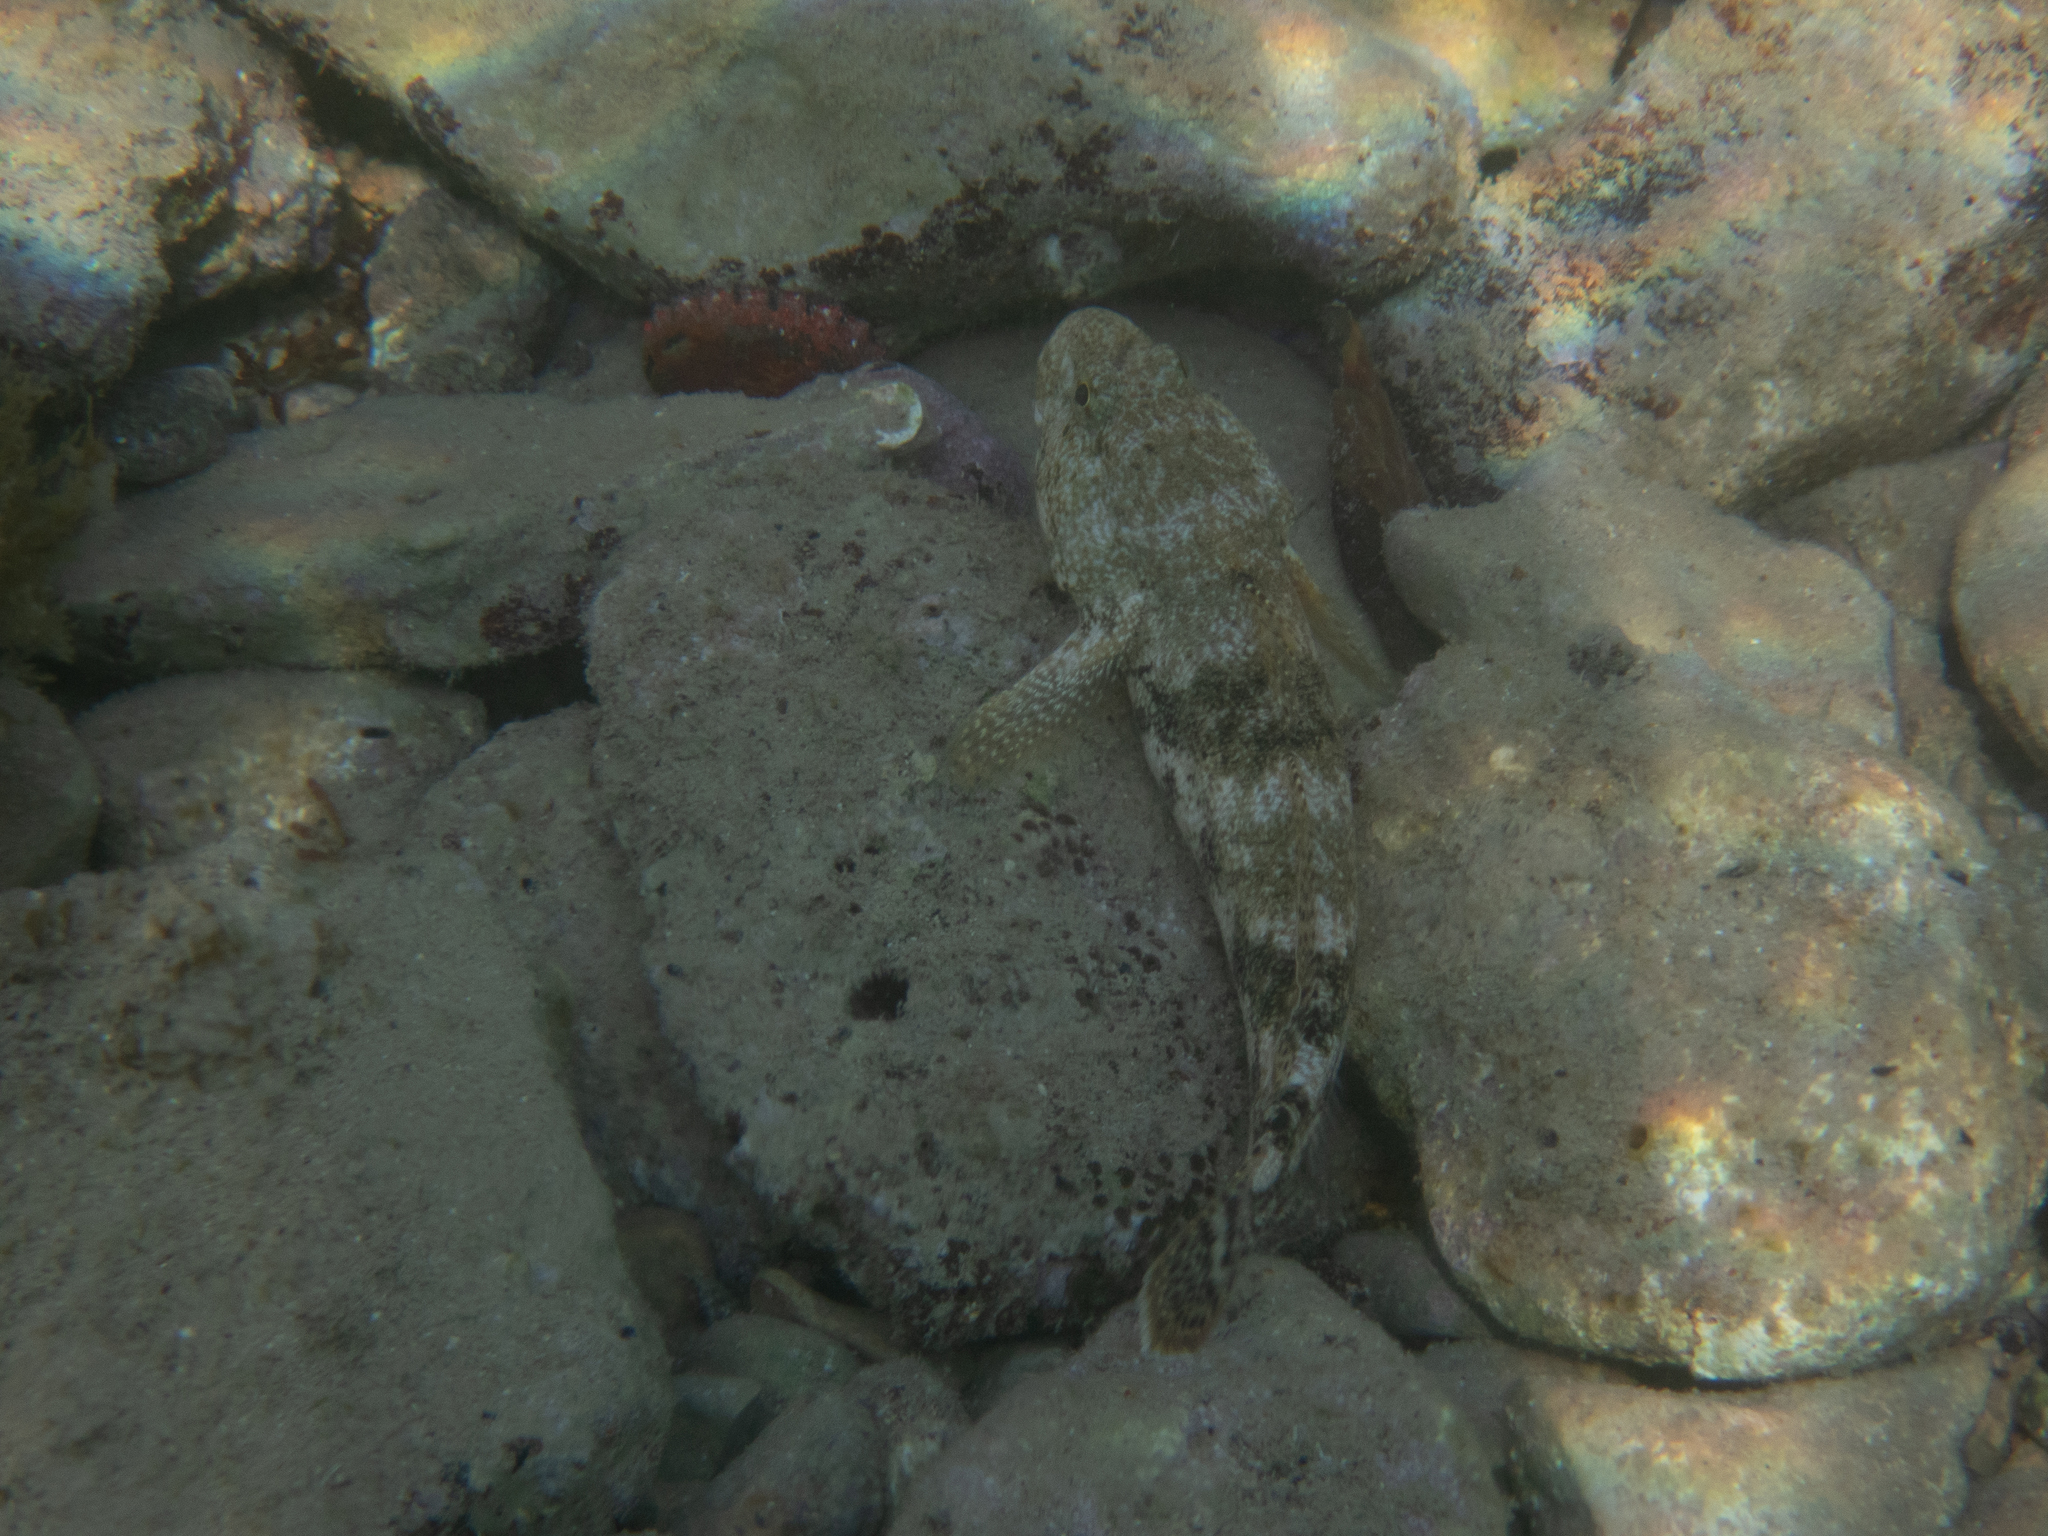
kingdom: Animalia
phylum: Chordata
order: Perciformes
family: Gobiidae
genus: Gobius
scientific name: Gobius cobitis
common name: Giant goby
